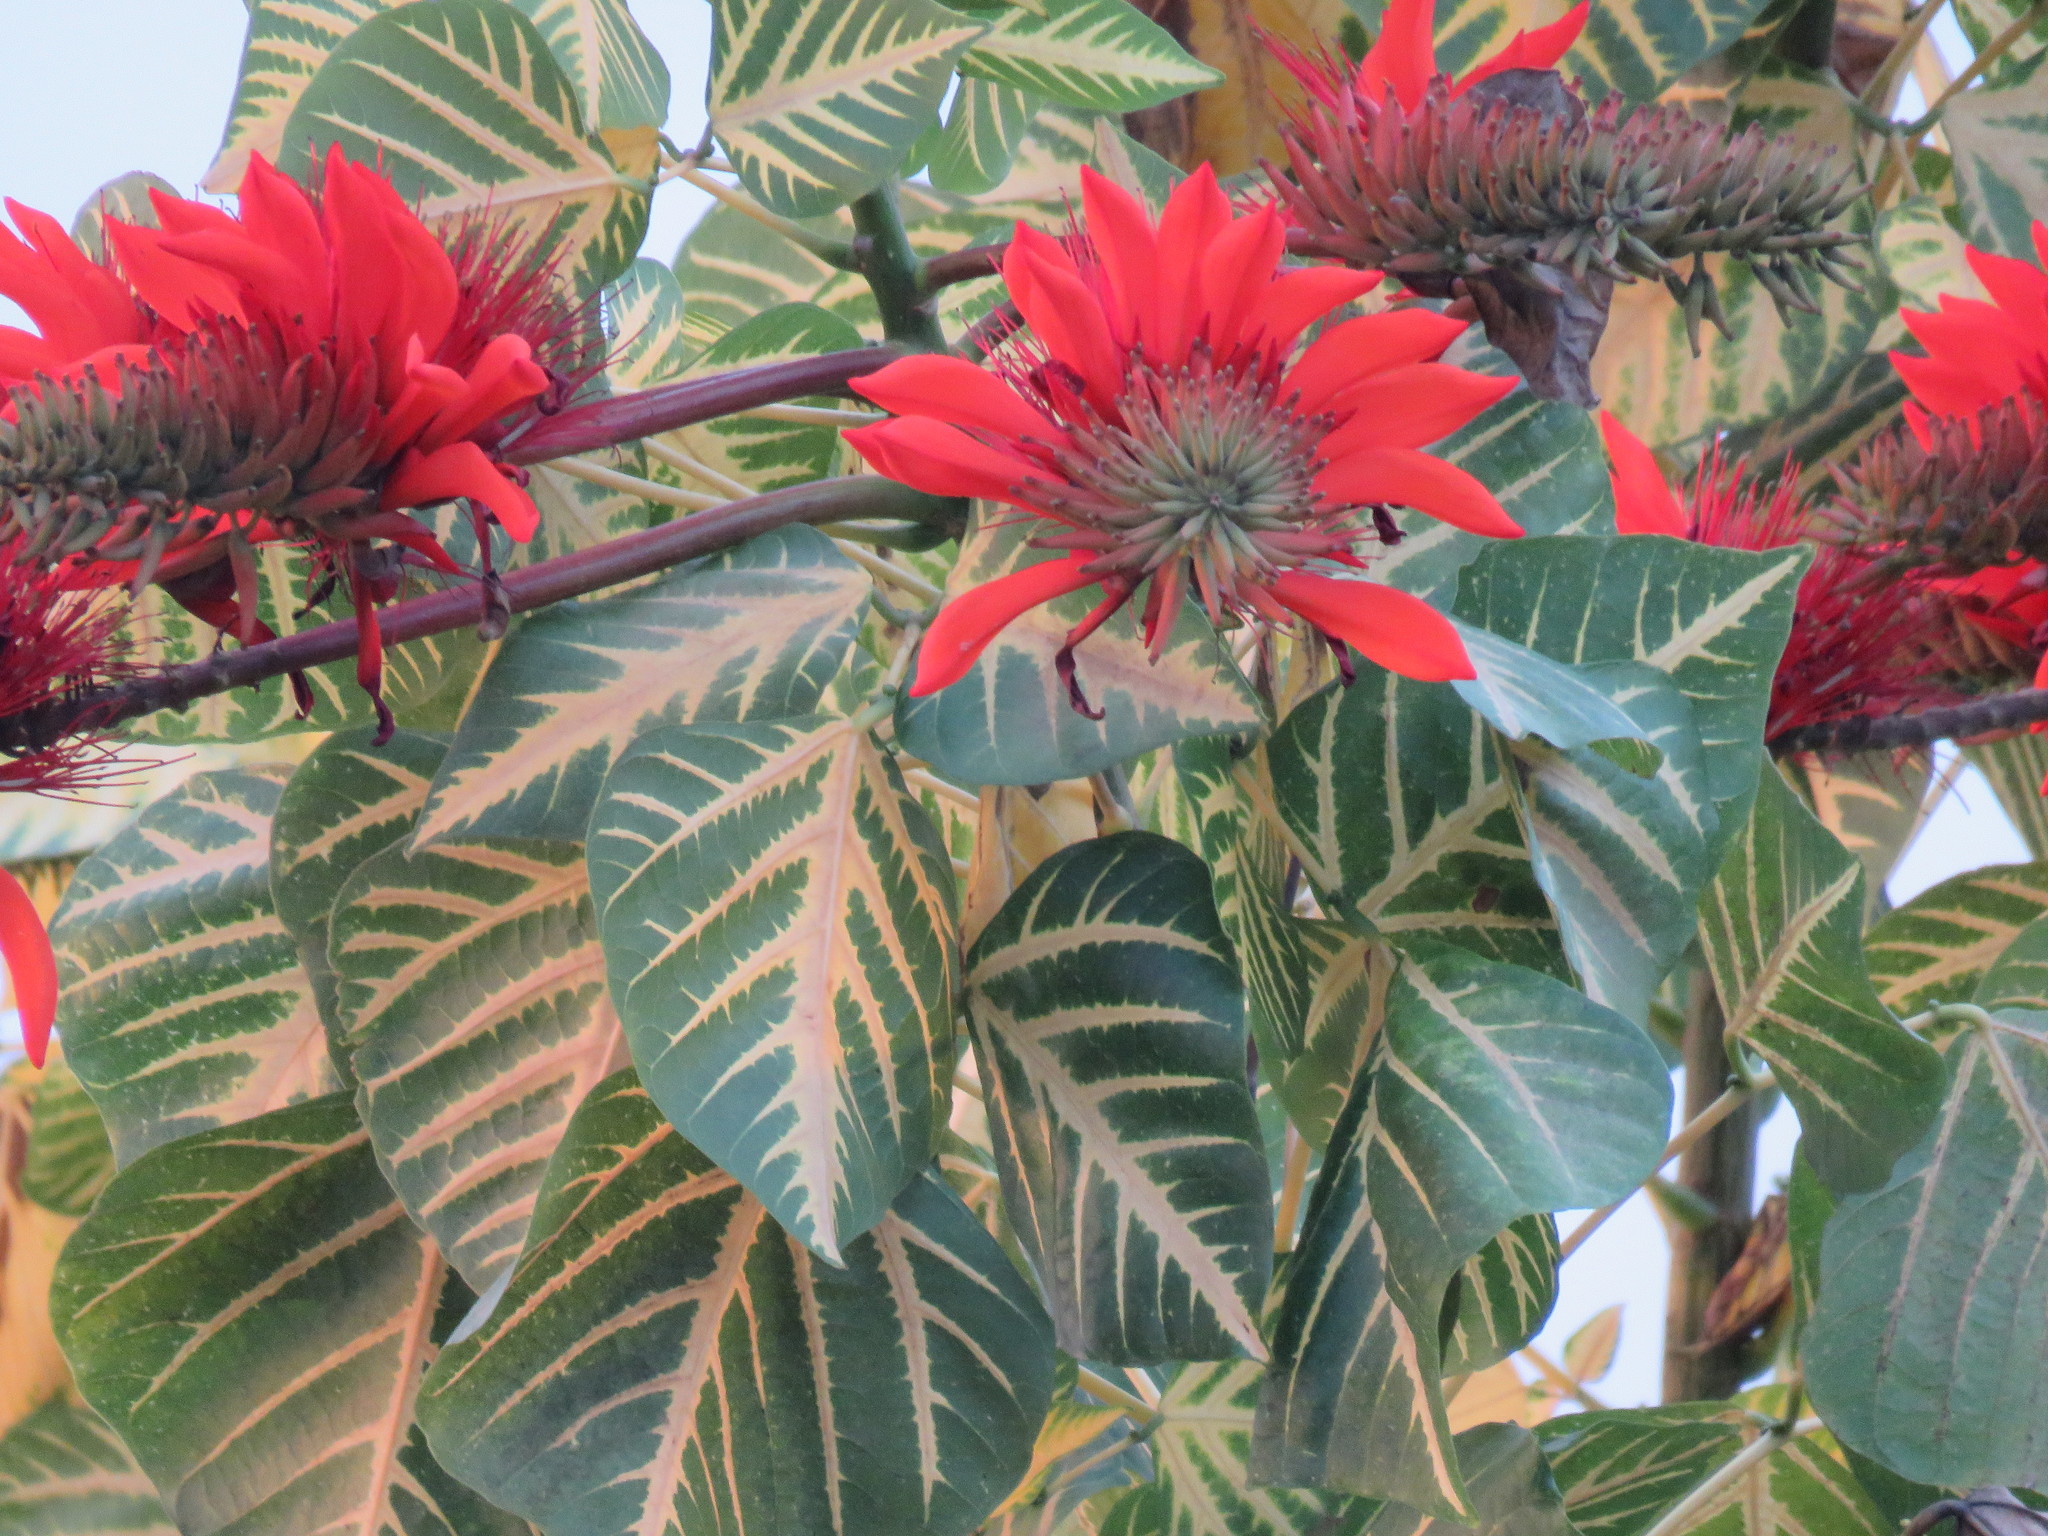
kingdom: Plantae
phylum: Tracheophyta
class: Magnoliopsida
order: Fabales
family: Fabaceae
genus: Erythrina
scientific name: Erythrina variegata
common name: Indian coral tree
